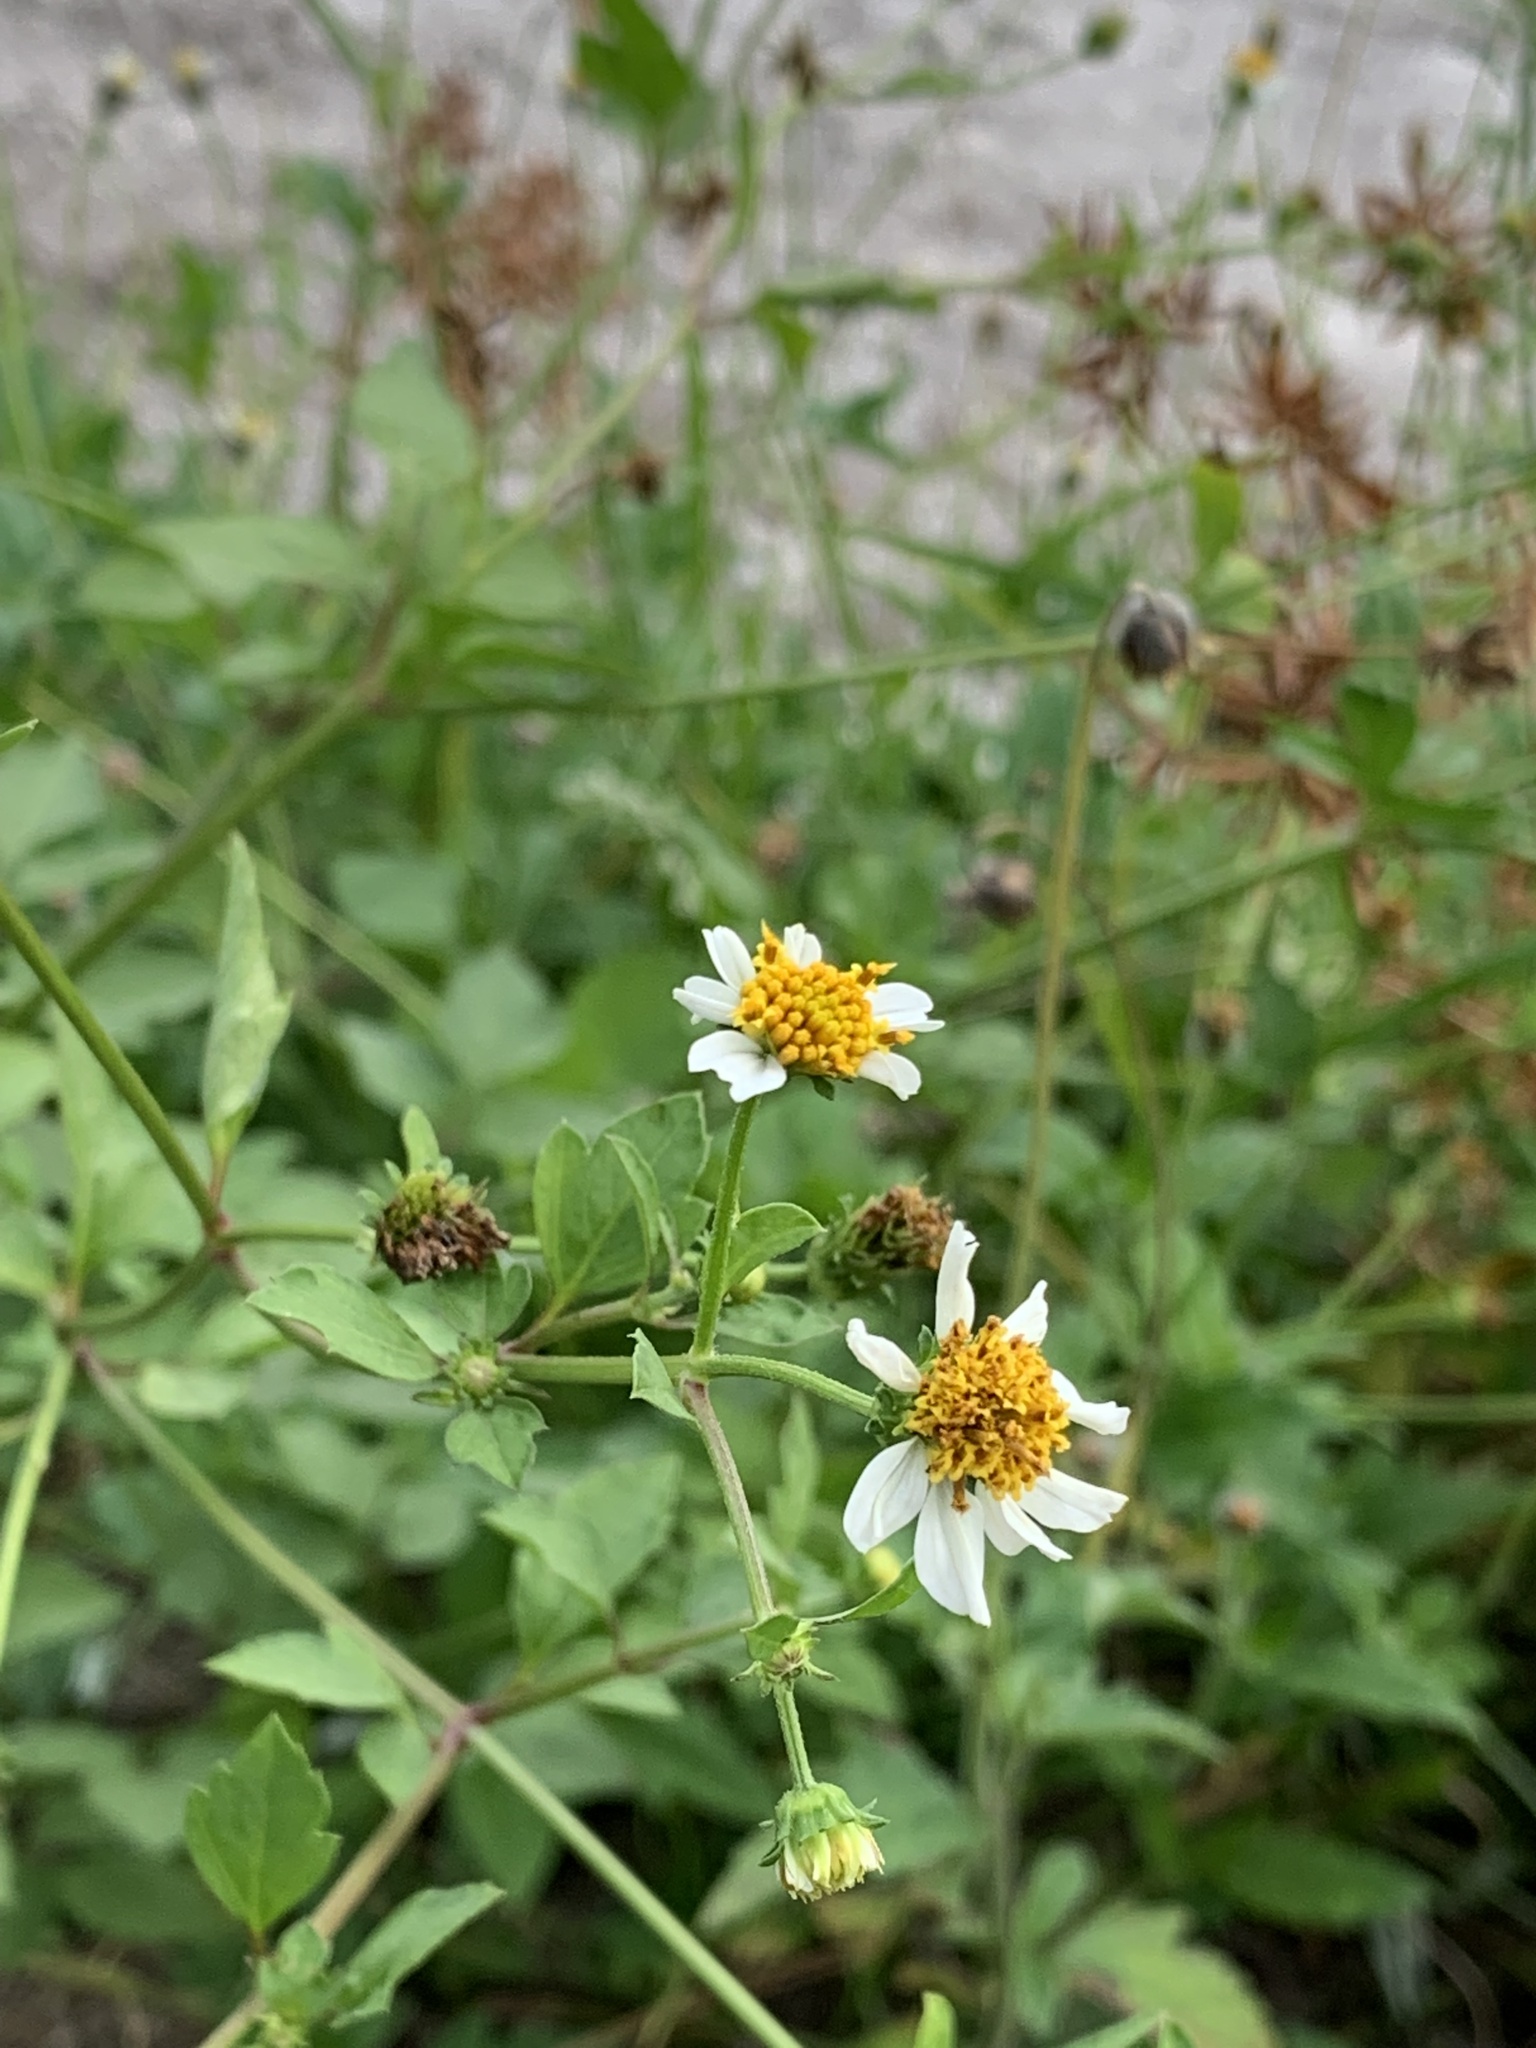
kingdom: Plantae
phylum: Tracheophyta
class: Magnoliopsida
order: Asterales
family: Asteraceae
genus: Bidens
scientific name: Bidens alba
